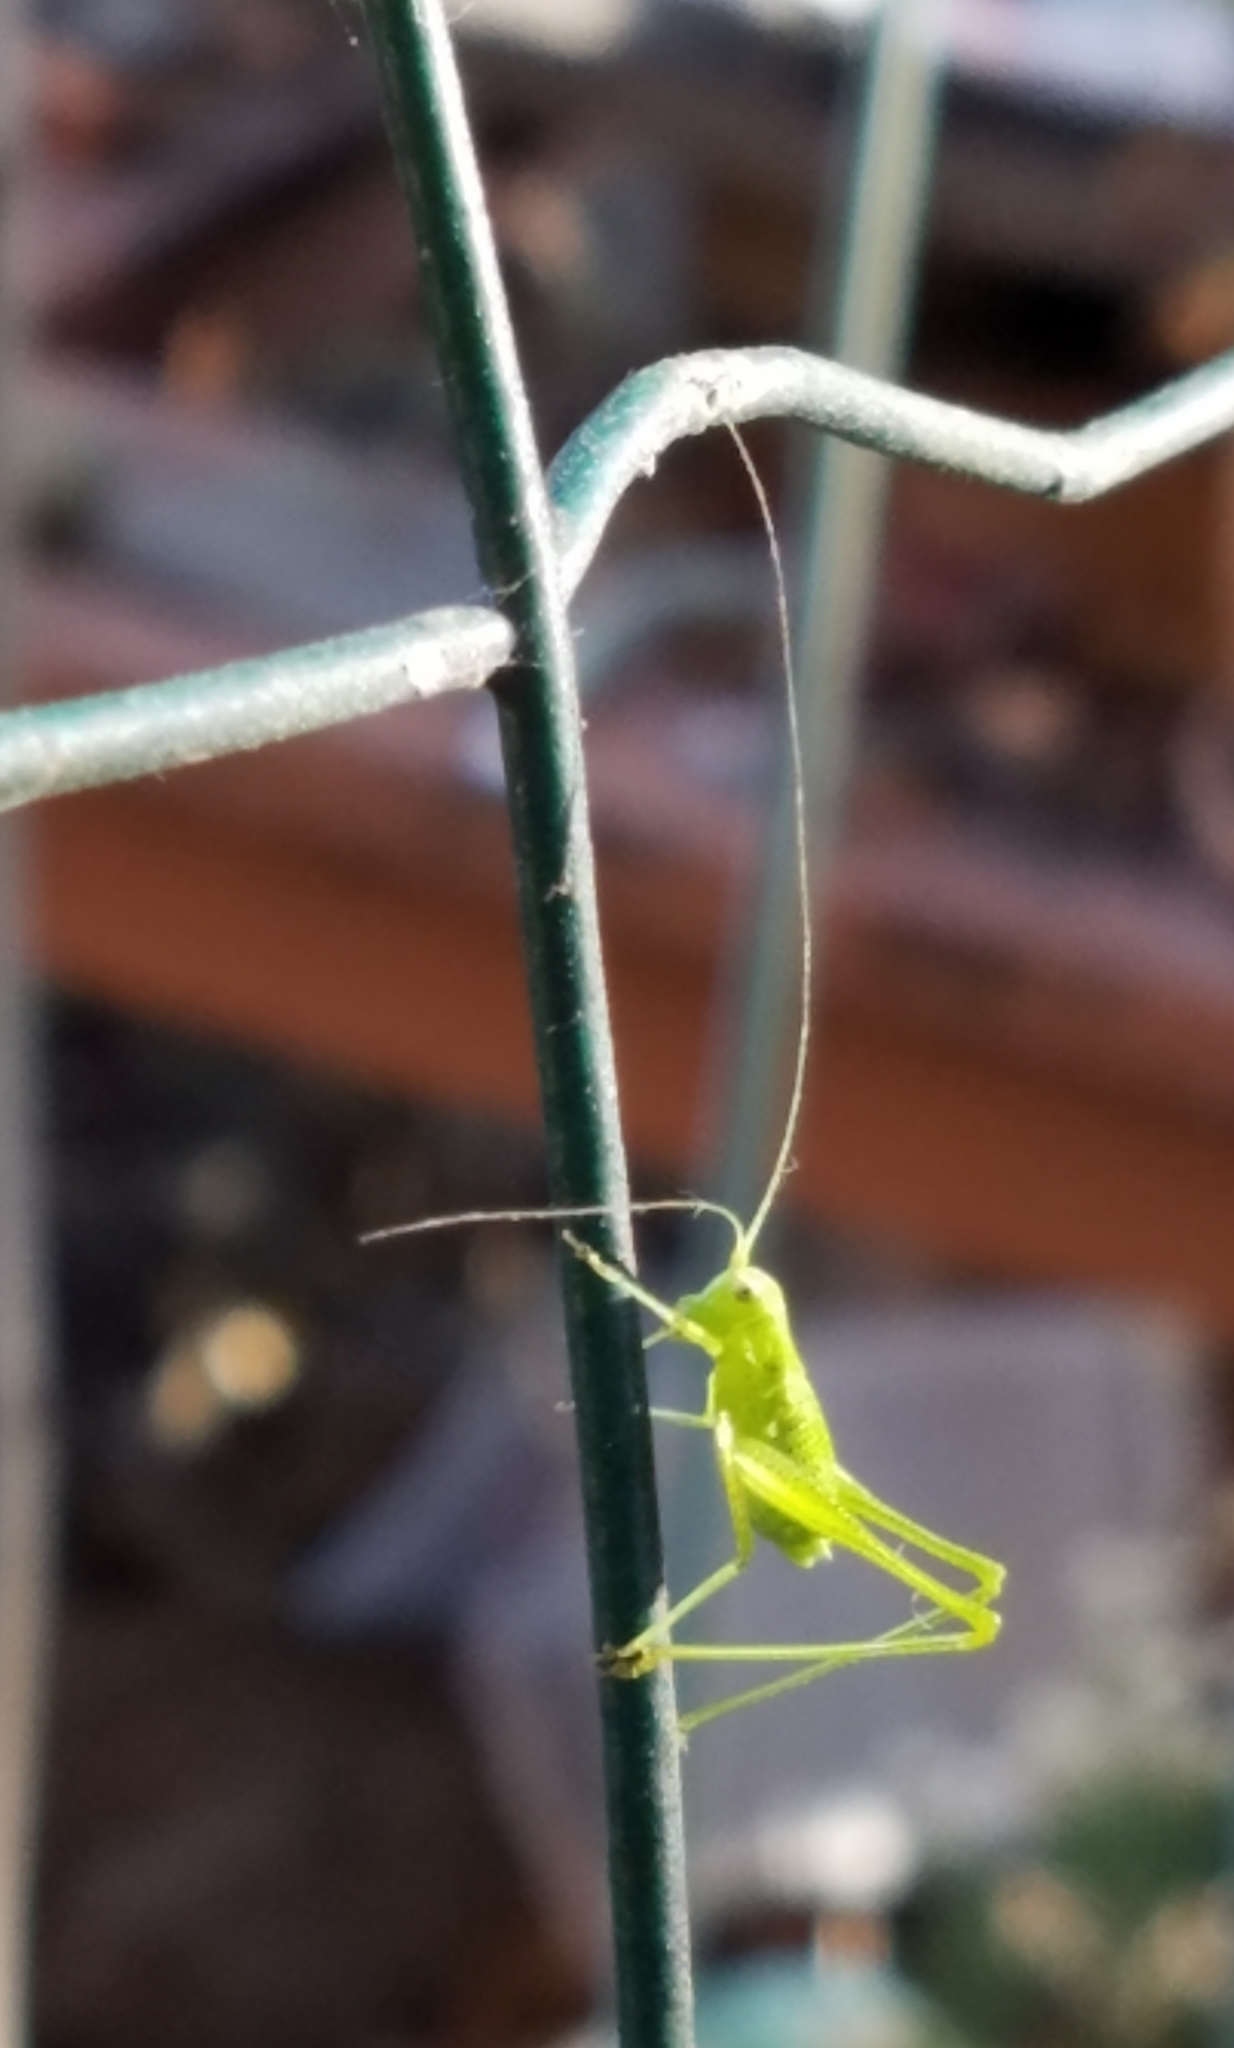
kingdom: Animalia
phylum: Arthropoda
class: Insecta
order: Orthoptera
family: Tettigoniidae
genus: Phaneroptera
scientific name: Phaneroptera nana
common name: Southern sickle bush-cricket
